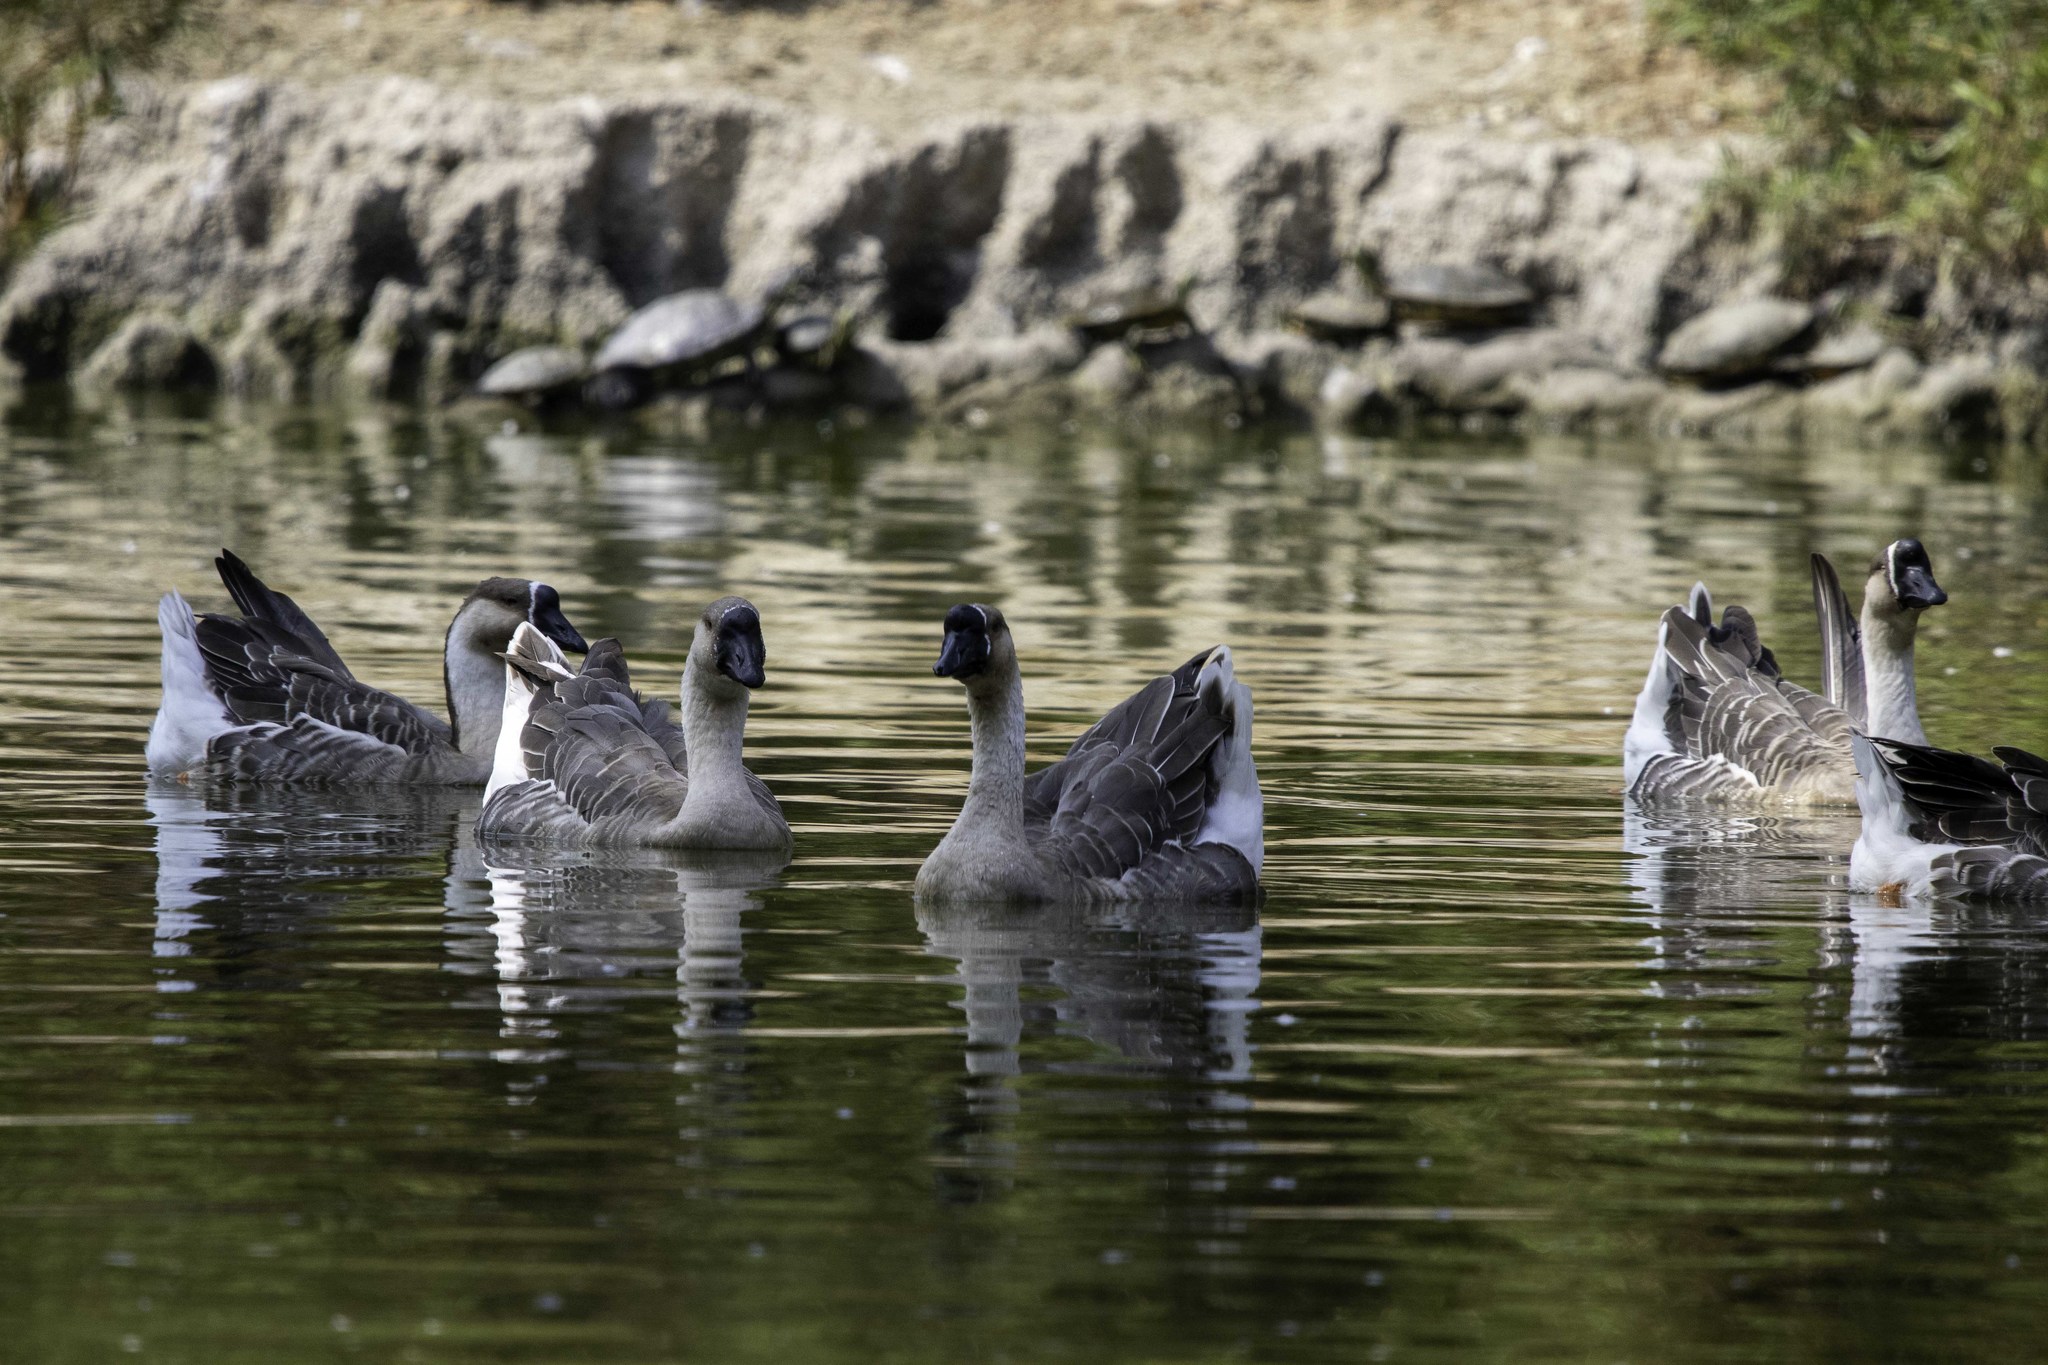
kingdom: Animalia
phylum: Chordata
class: Aves
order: Anseriformes
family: Anatidae
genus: Anser
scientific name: Anser cygnoides
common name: Swan goose
